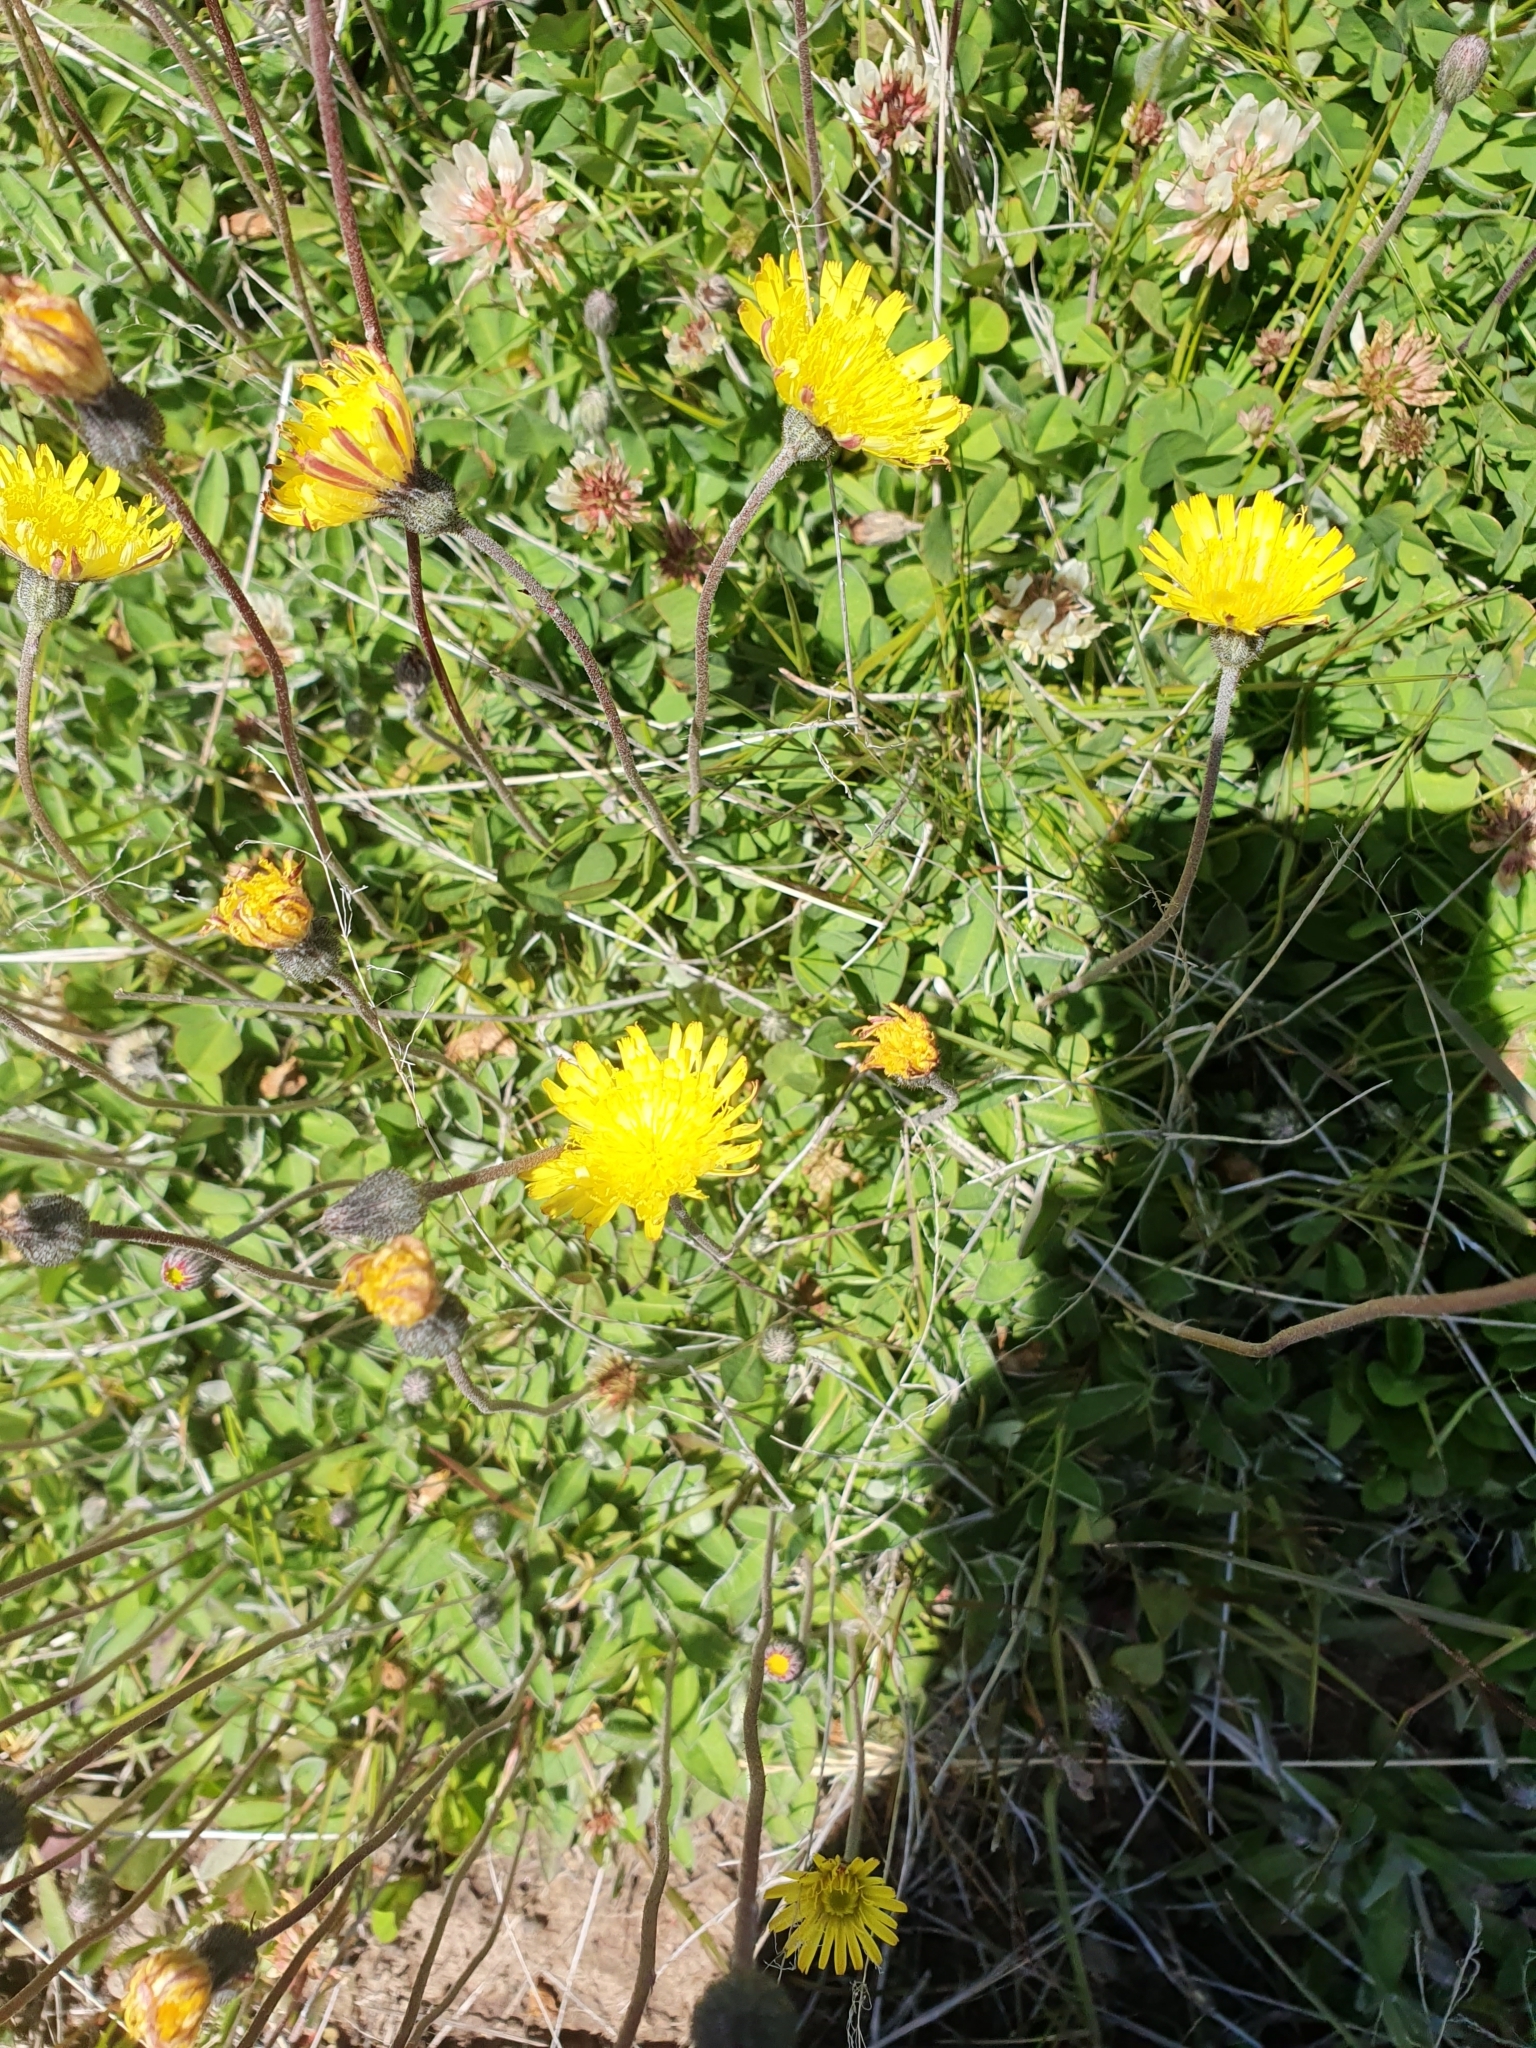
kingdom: Plantae
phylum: Tracheophyta
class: Magnoliopsida
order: Asterales
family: Asteraceae
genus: Pilosella
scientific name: Pilosella officinarum
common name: Mouse-ear hawkweed
